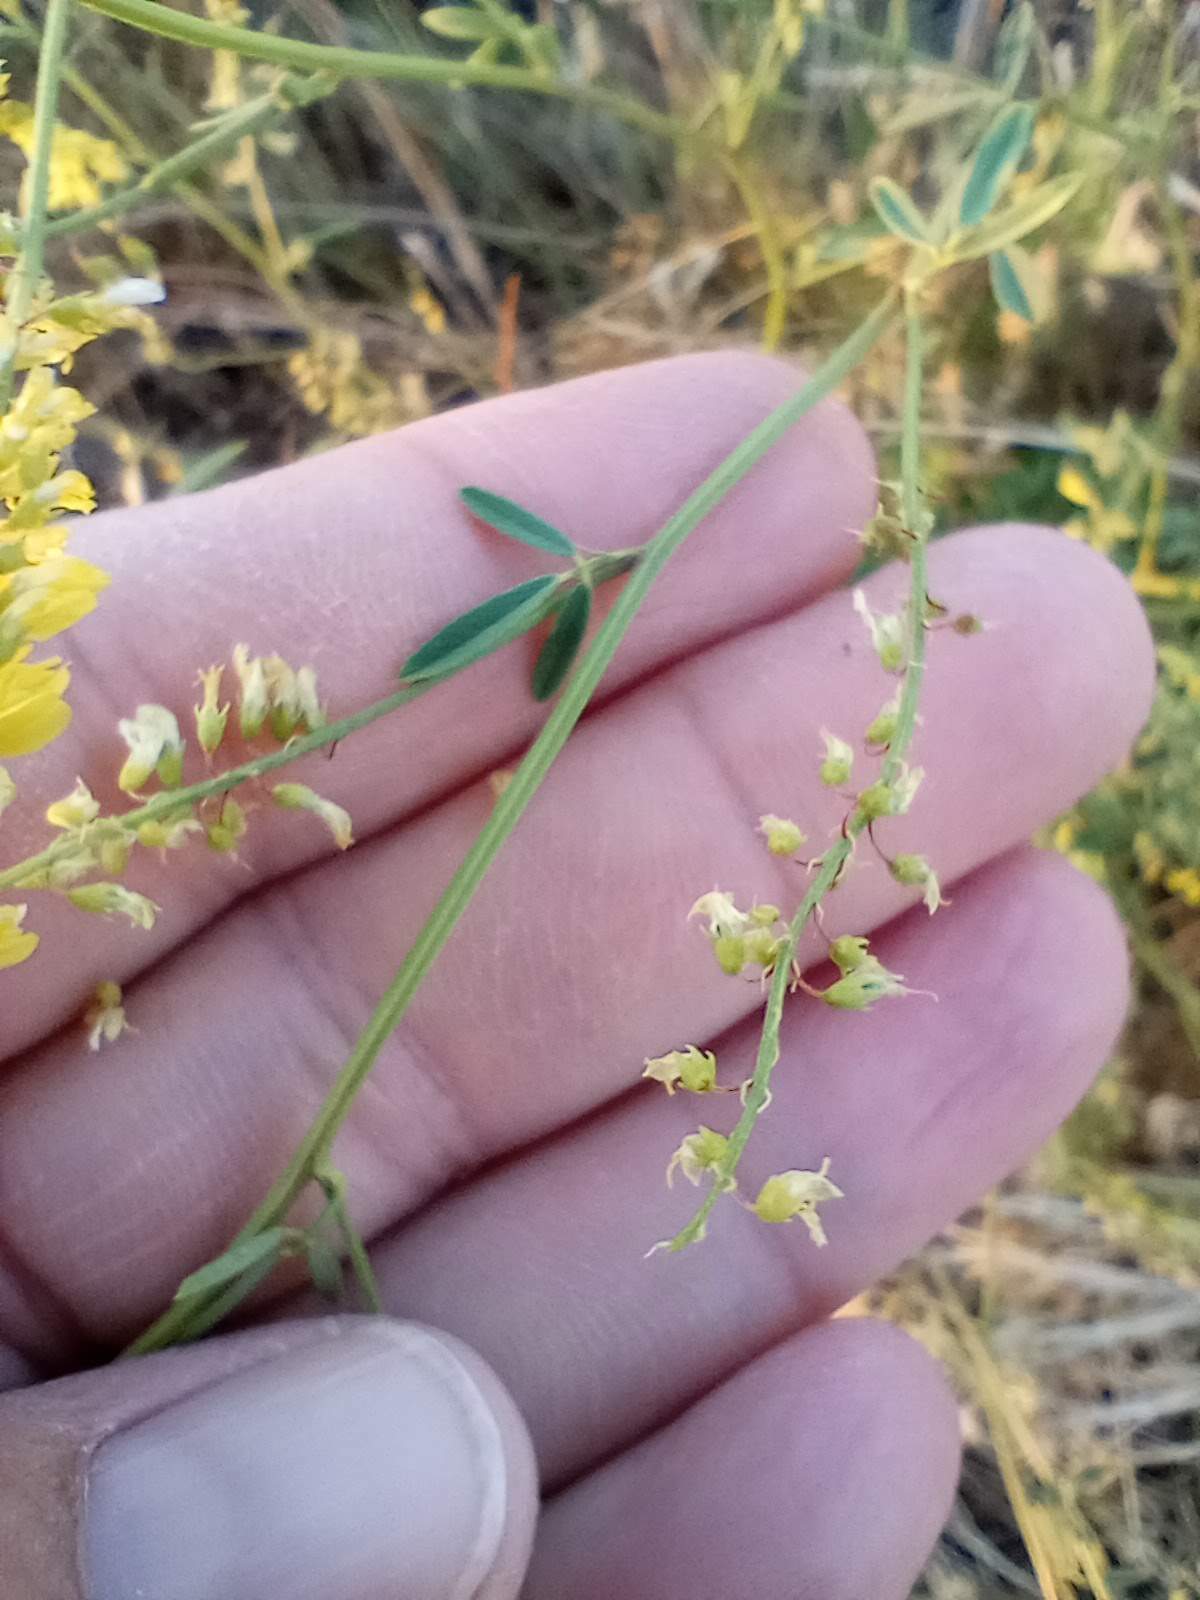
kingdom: Plantae
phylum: Tracheophyta
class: Magnoliopsida
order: Fabales
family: Fabaceae
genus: Melilotus
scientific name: Melilotus officinalis
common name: Sweetclover
